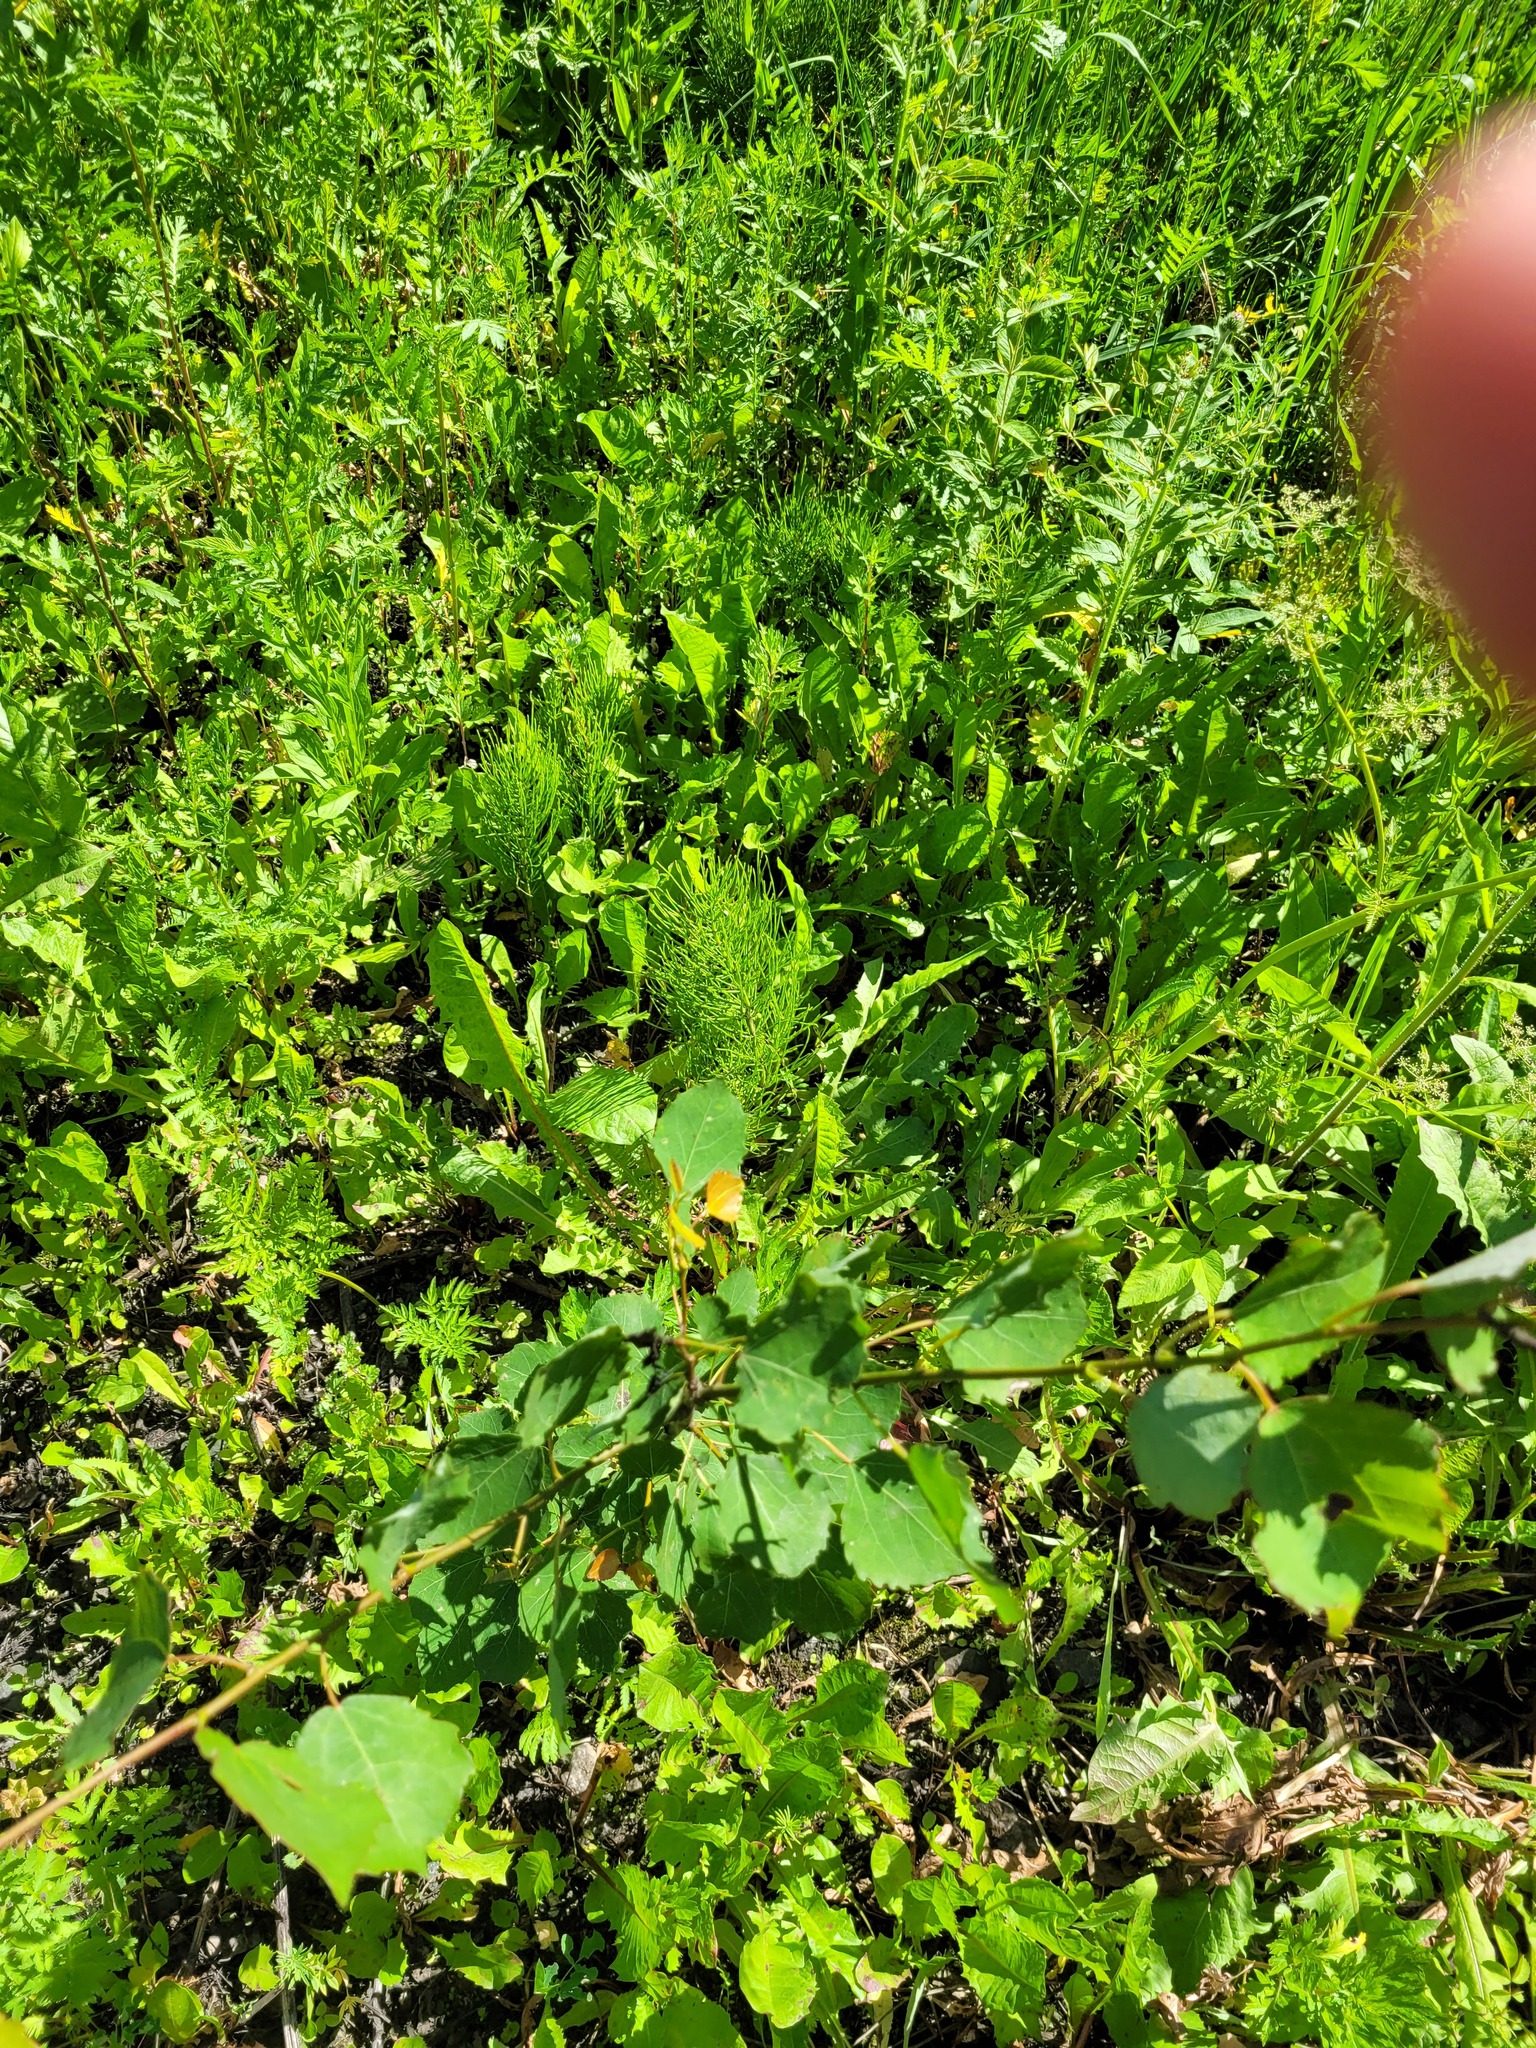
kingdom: Plantae
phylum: Tracheophyta
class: Magnoliopsida
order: Malpighiales
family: Salicaceae
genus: Populus
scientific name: Populus tremula
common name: European aspen
